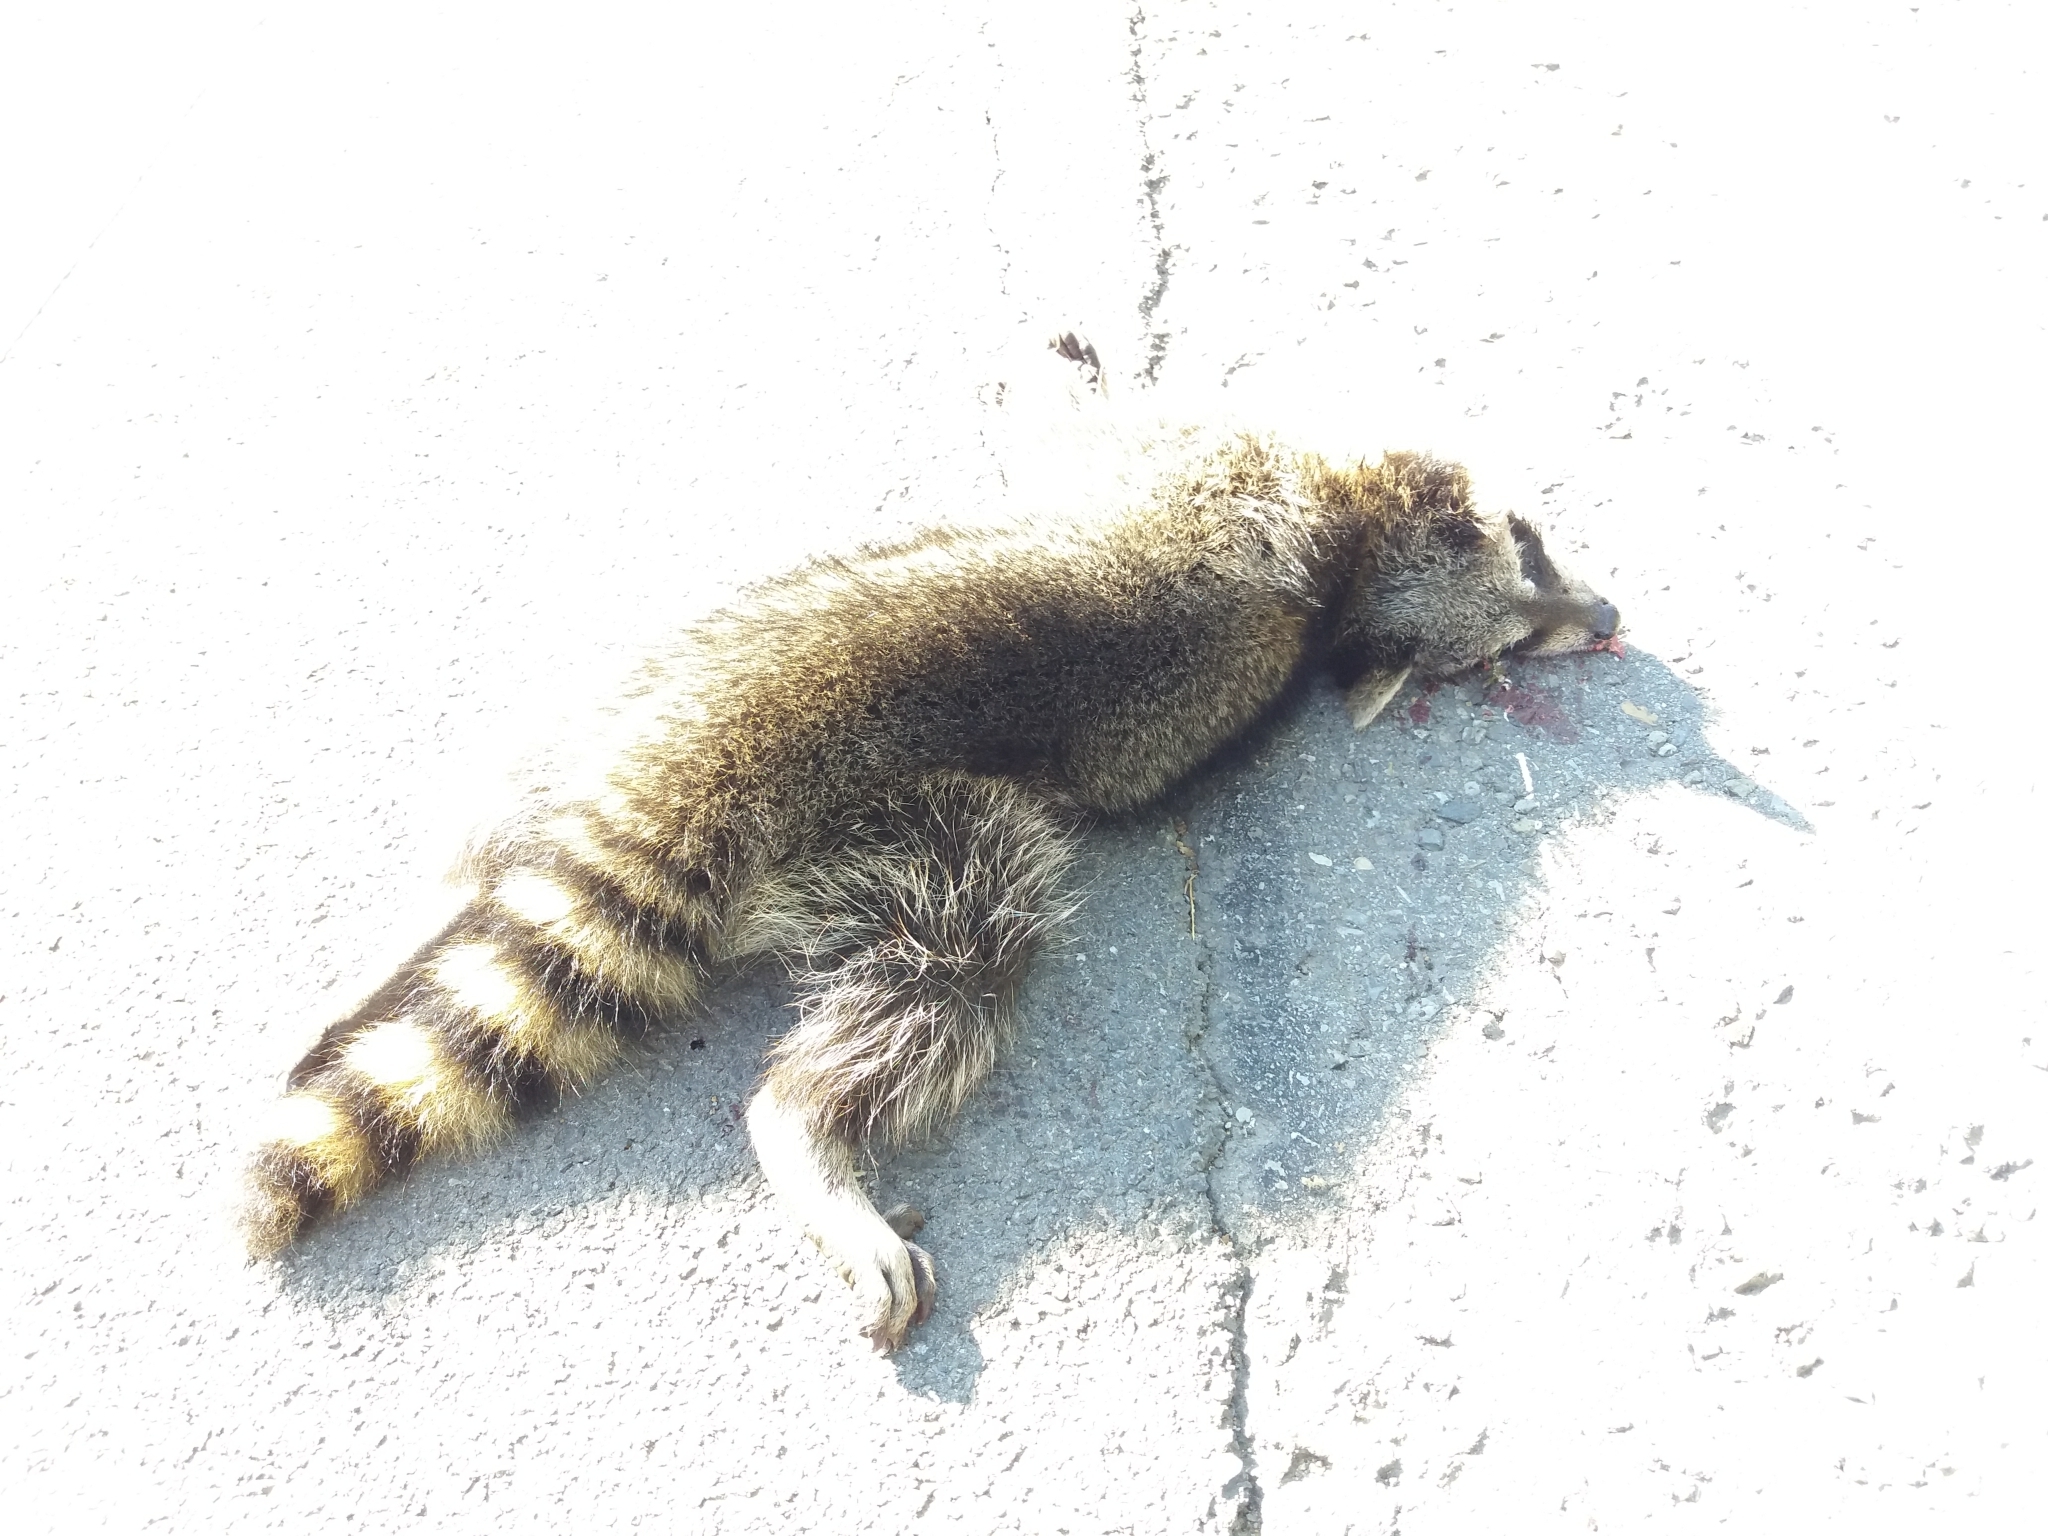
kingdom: Animalia
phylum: Chordata
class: Mammalia
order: Carnivora
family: Procyonidae
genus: Procyon
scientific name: Procyon lotor
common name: Raccoon
